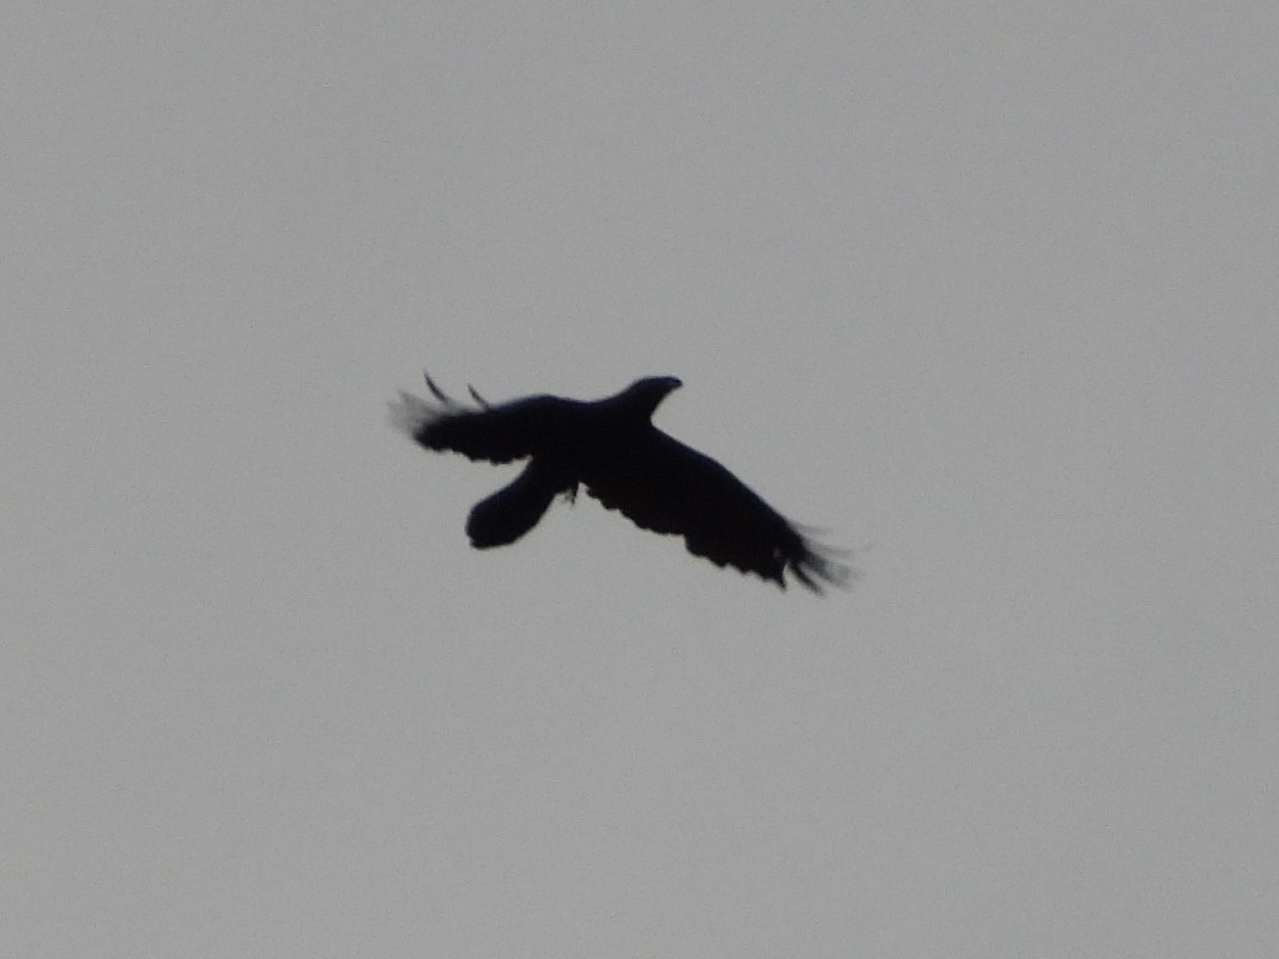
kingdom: Animalia
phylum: Chordata
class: Aves
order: Passeriformes
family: Corvidae
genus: Corvus
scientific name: Corvus corax
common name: Common raven
